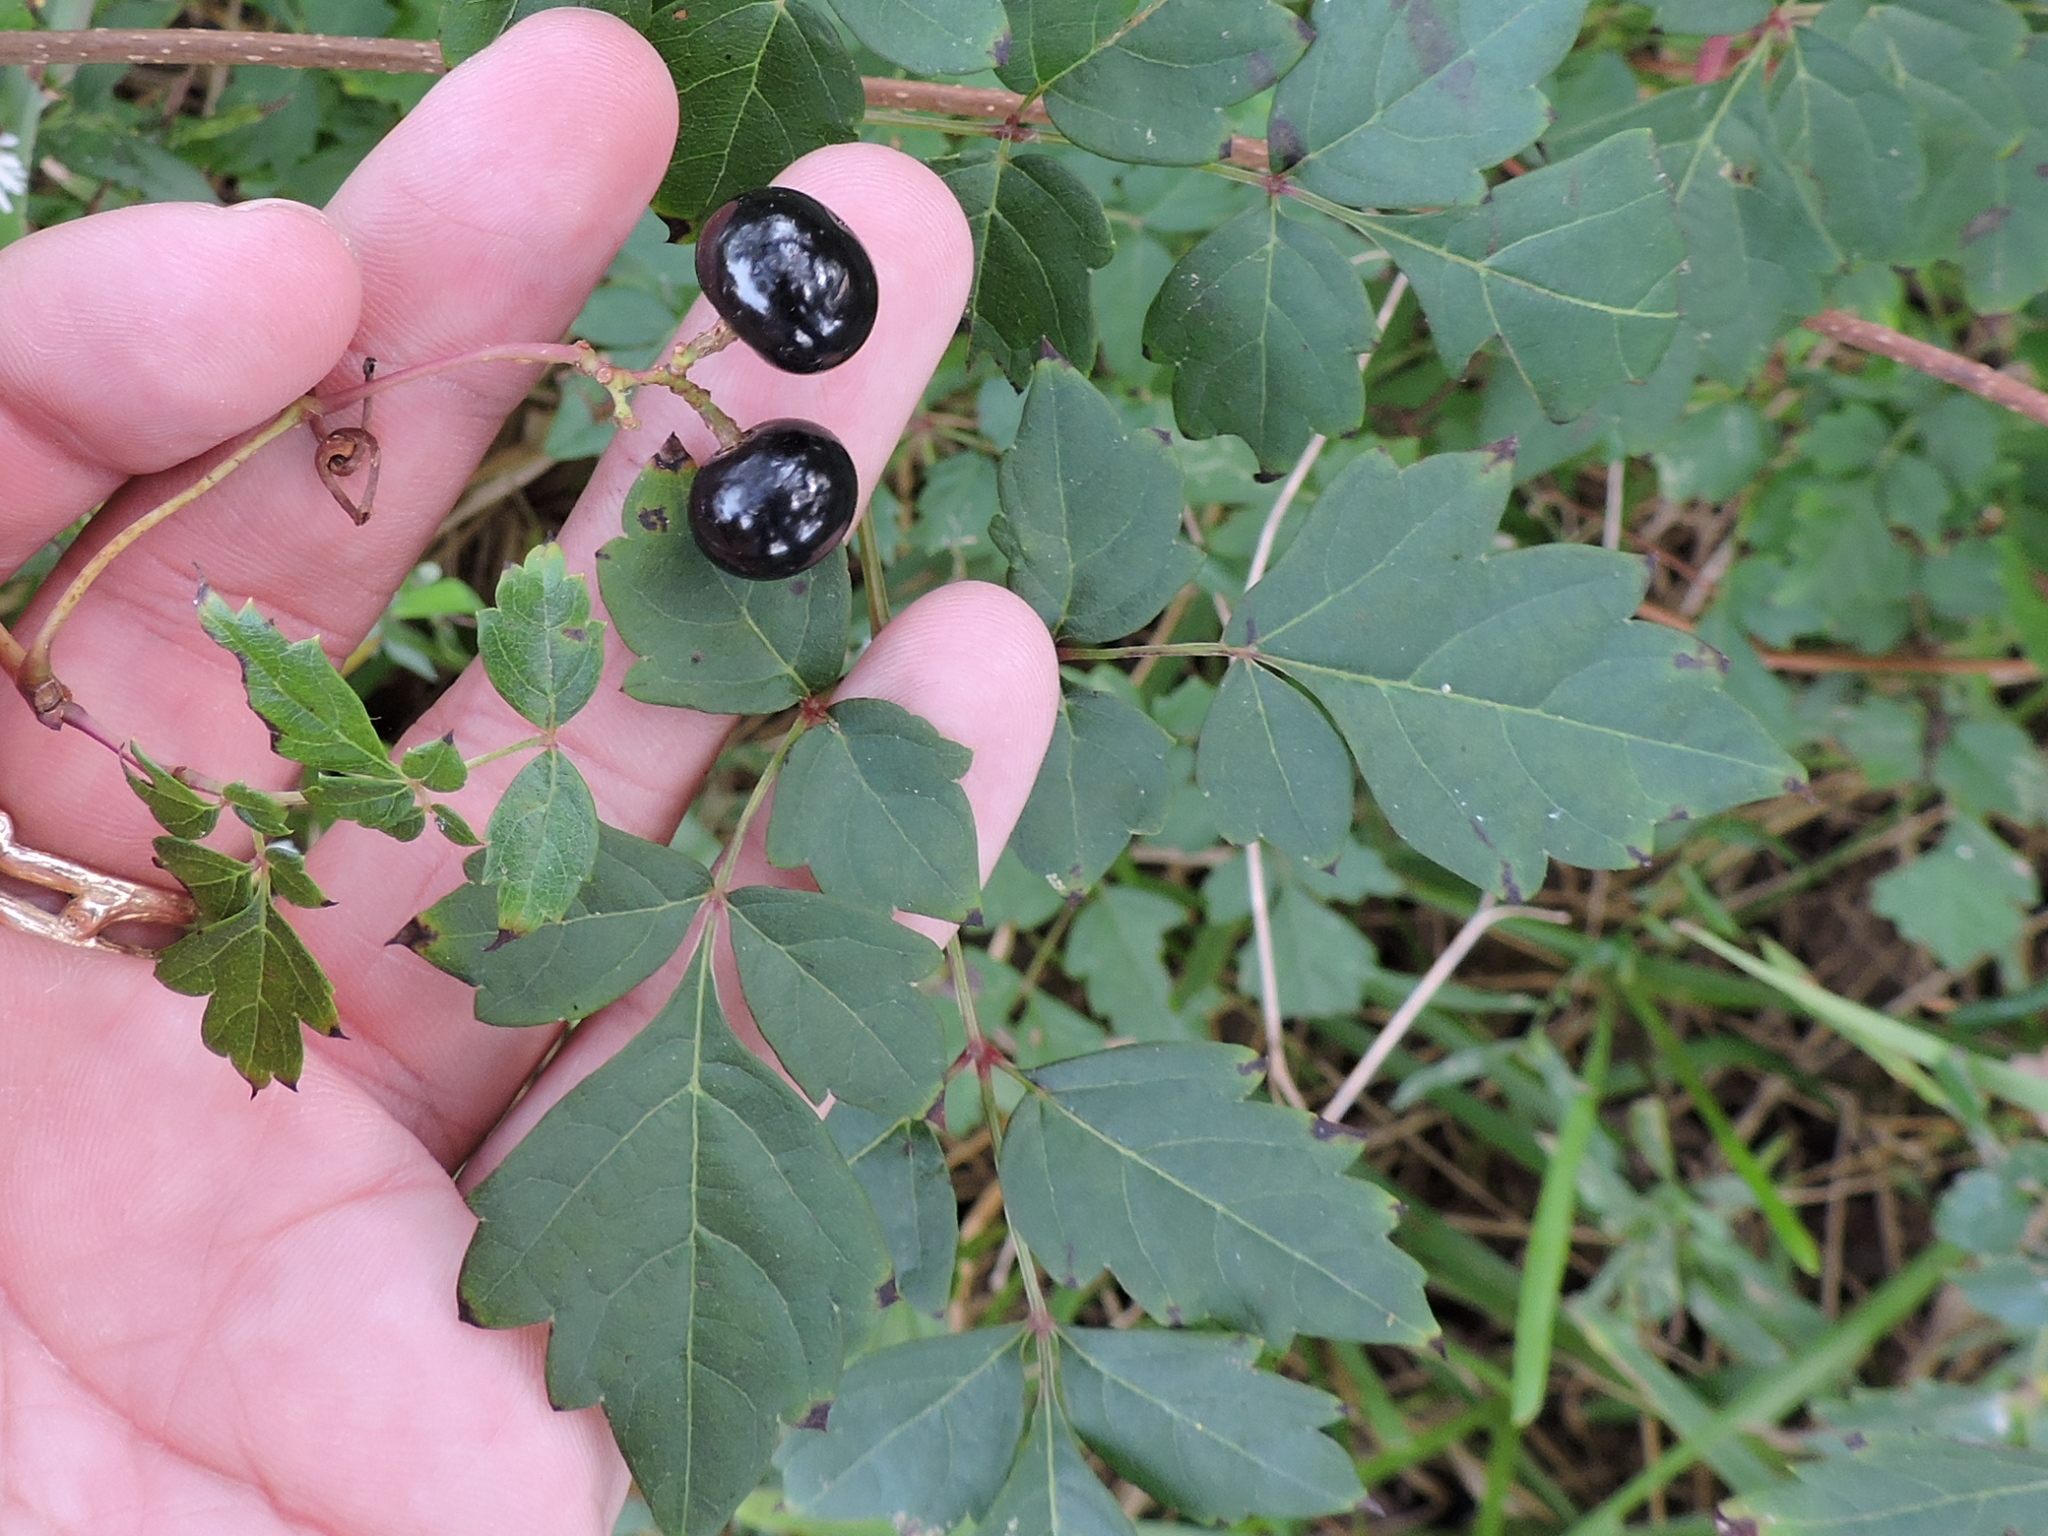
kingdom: Plantae
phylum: Tracheophyta
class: Magnoliopsida
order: Vitales
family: Vitaceae
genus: Nekemias
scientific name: Nekemias arborea
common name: Peppervine
